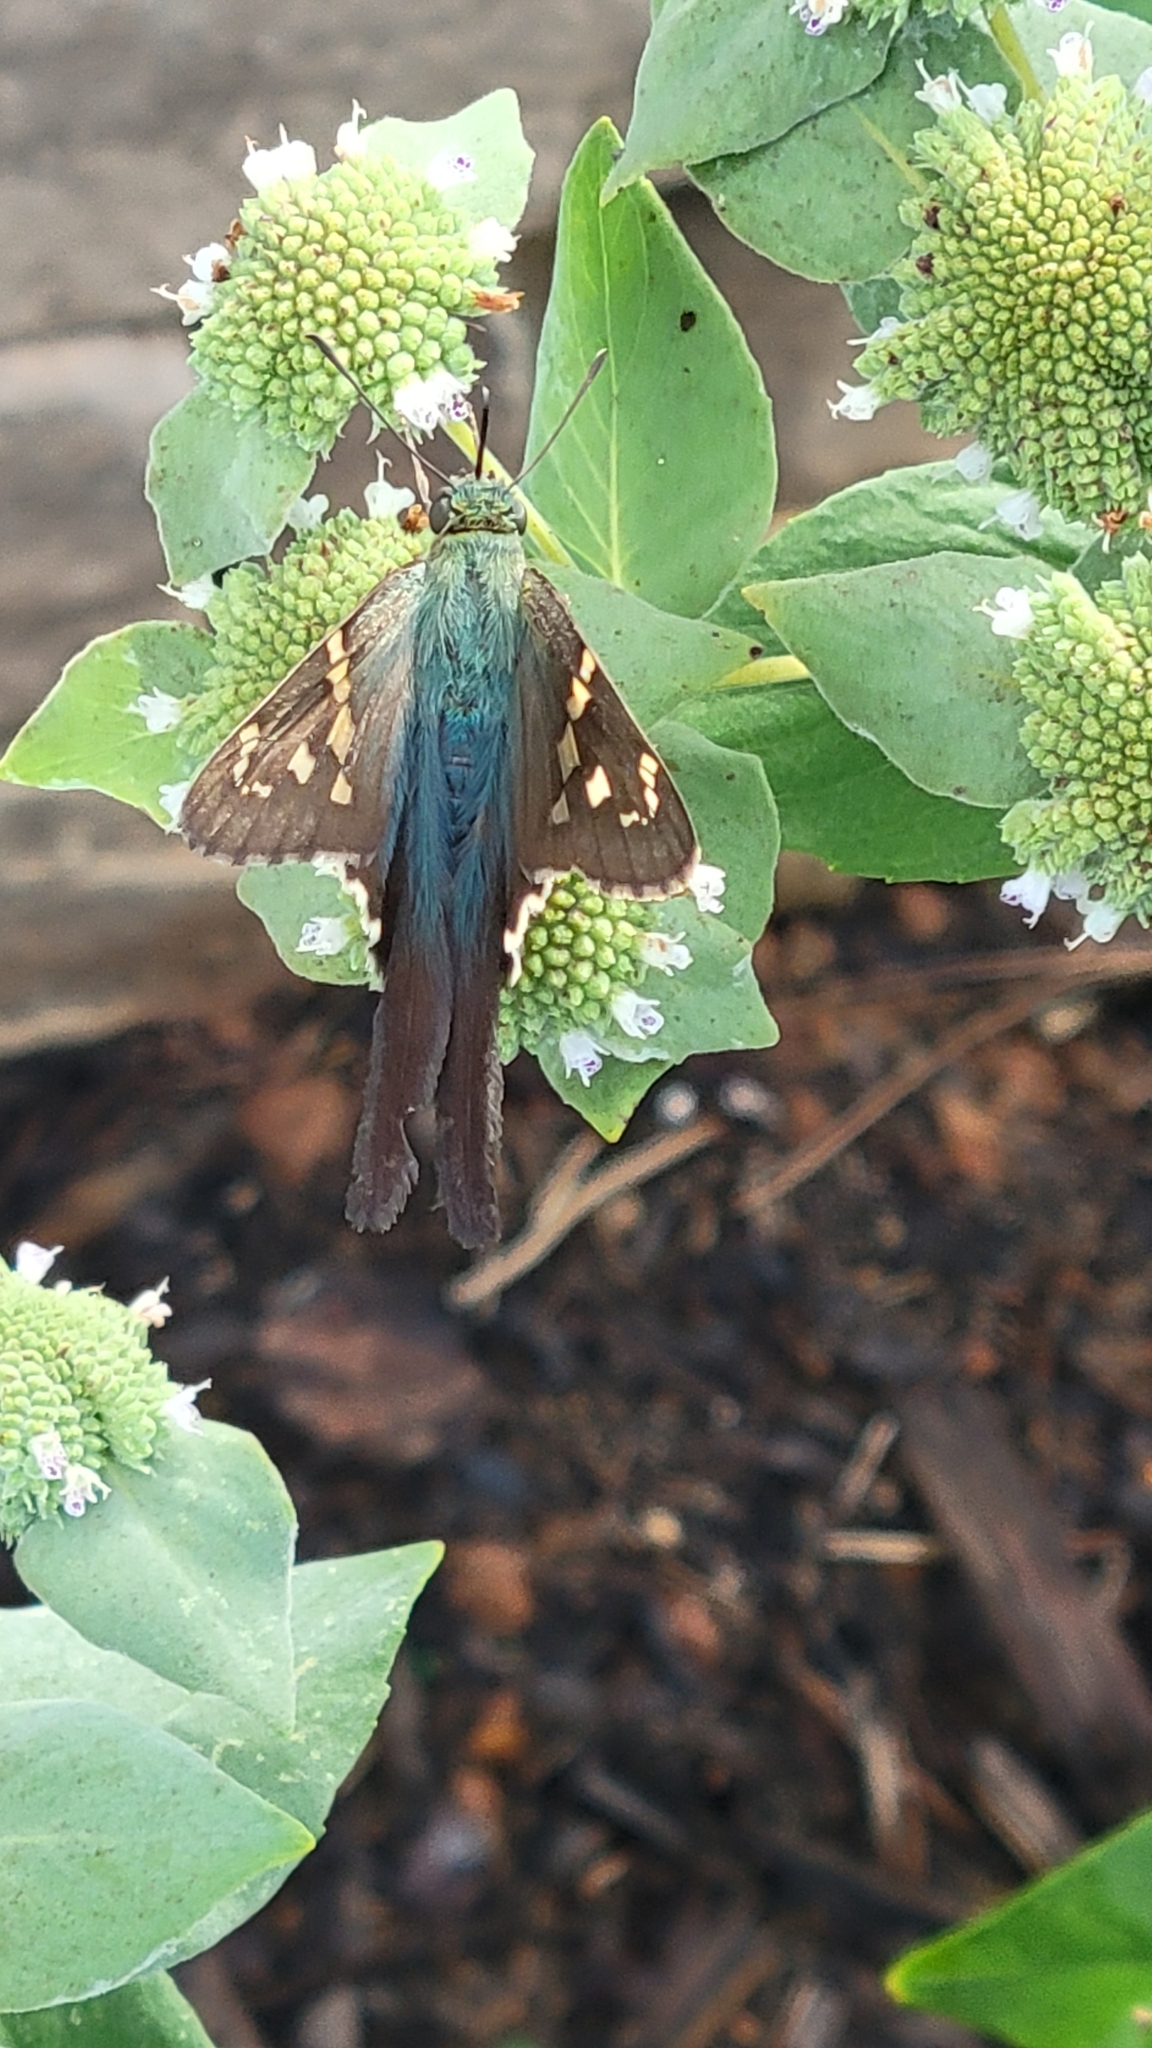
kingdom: Animalia
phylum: Arthropoda
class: Insecta
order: Lepidoptera
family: Hesperiidae
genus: Urbanus
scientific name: Urbanus proteus
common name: Long-tailed skipper
